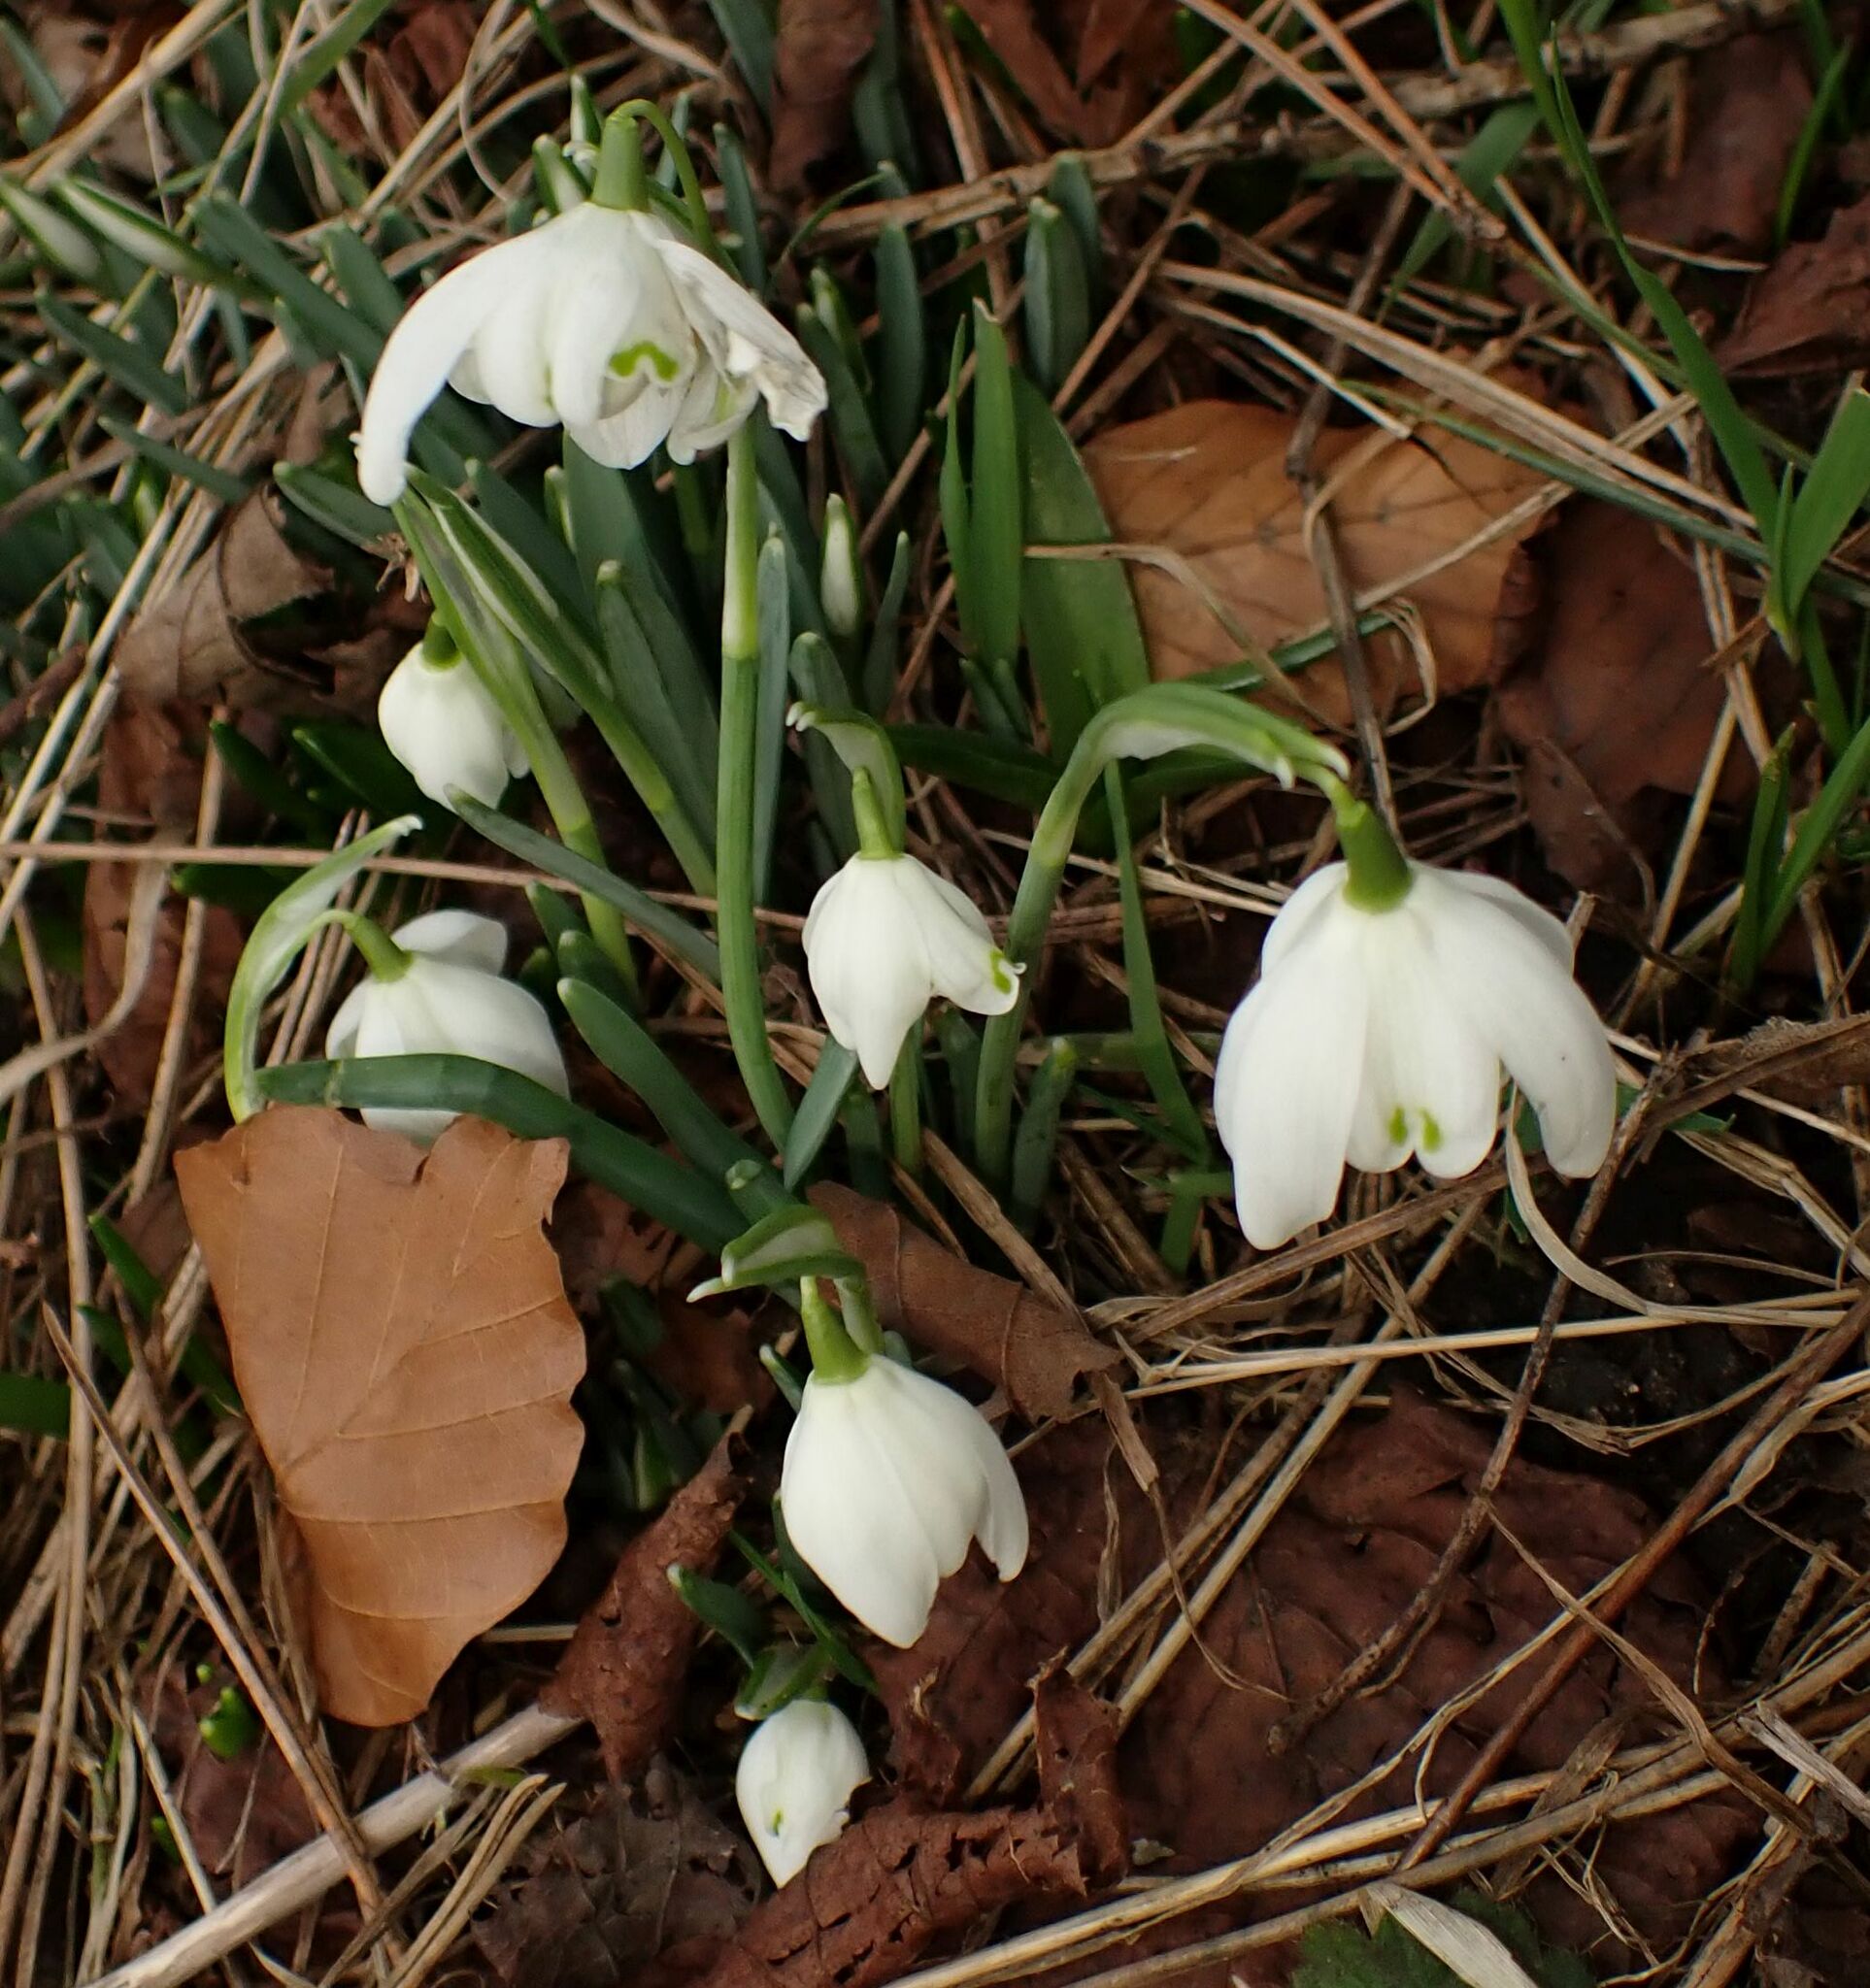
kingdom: Plantae
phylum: Tracheophyta
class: Liliopsida
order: Asparagales
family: Amaryllidaceae
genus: Galanthus
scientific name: Galanthus nivalis
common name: Snowdrop
